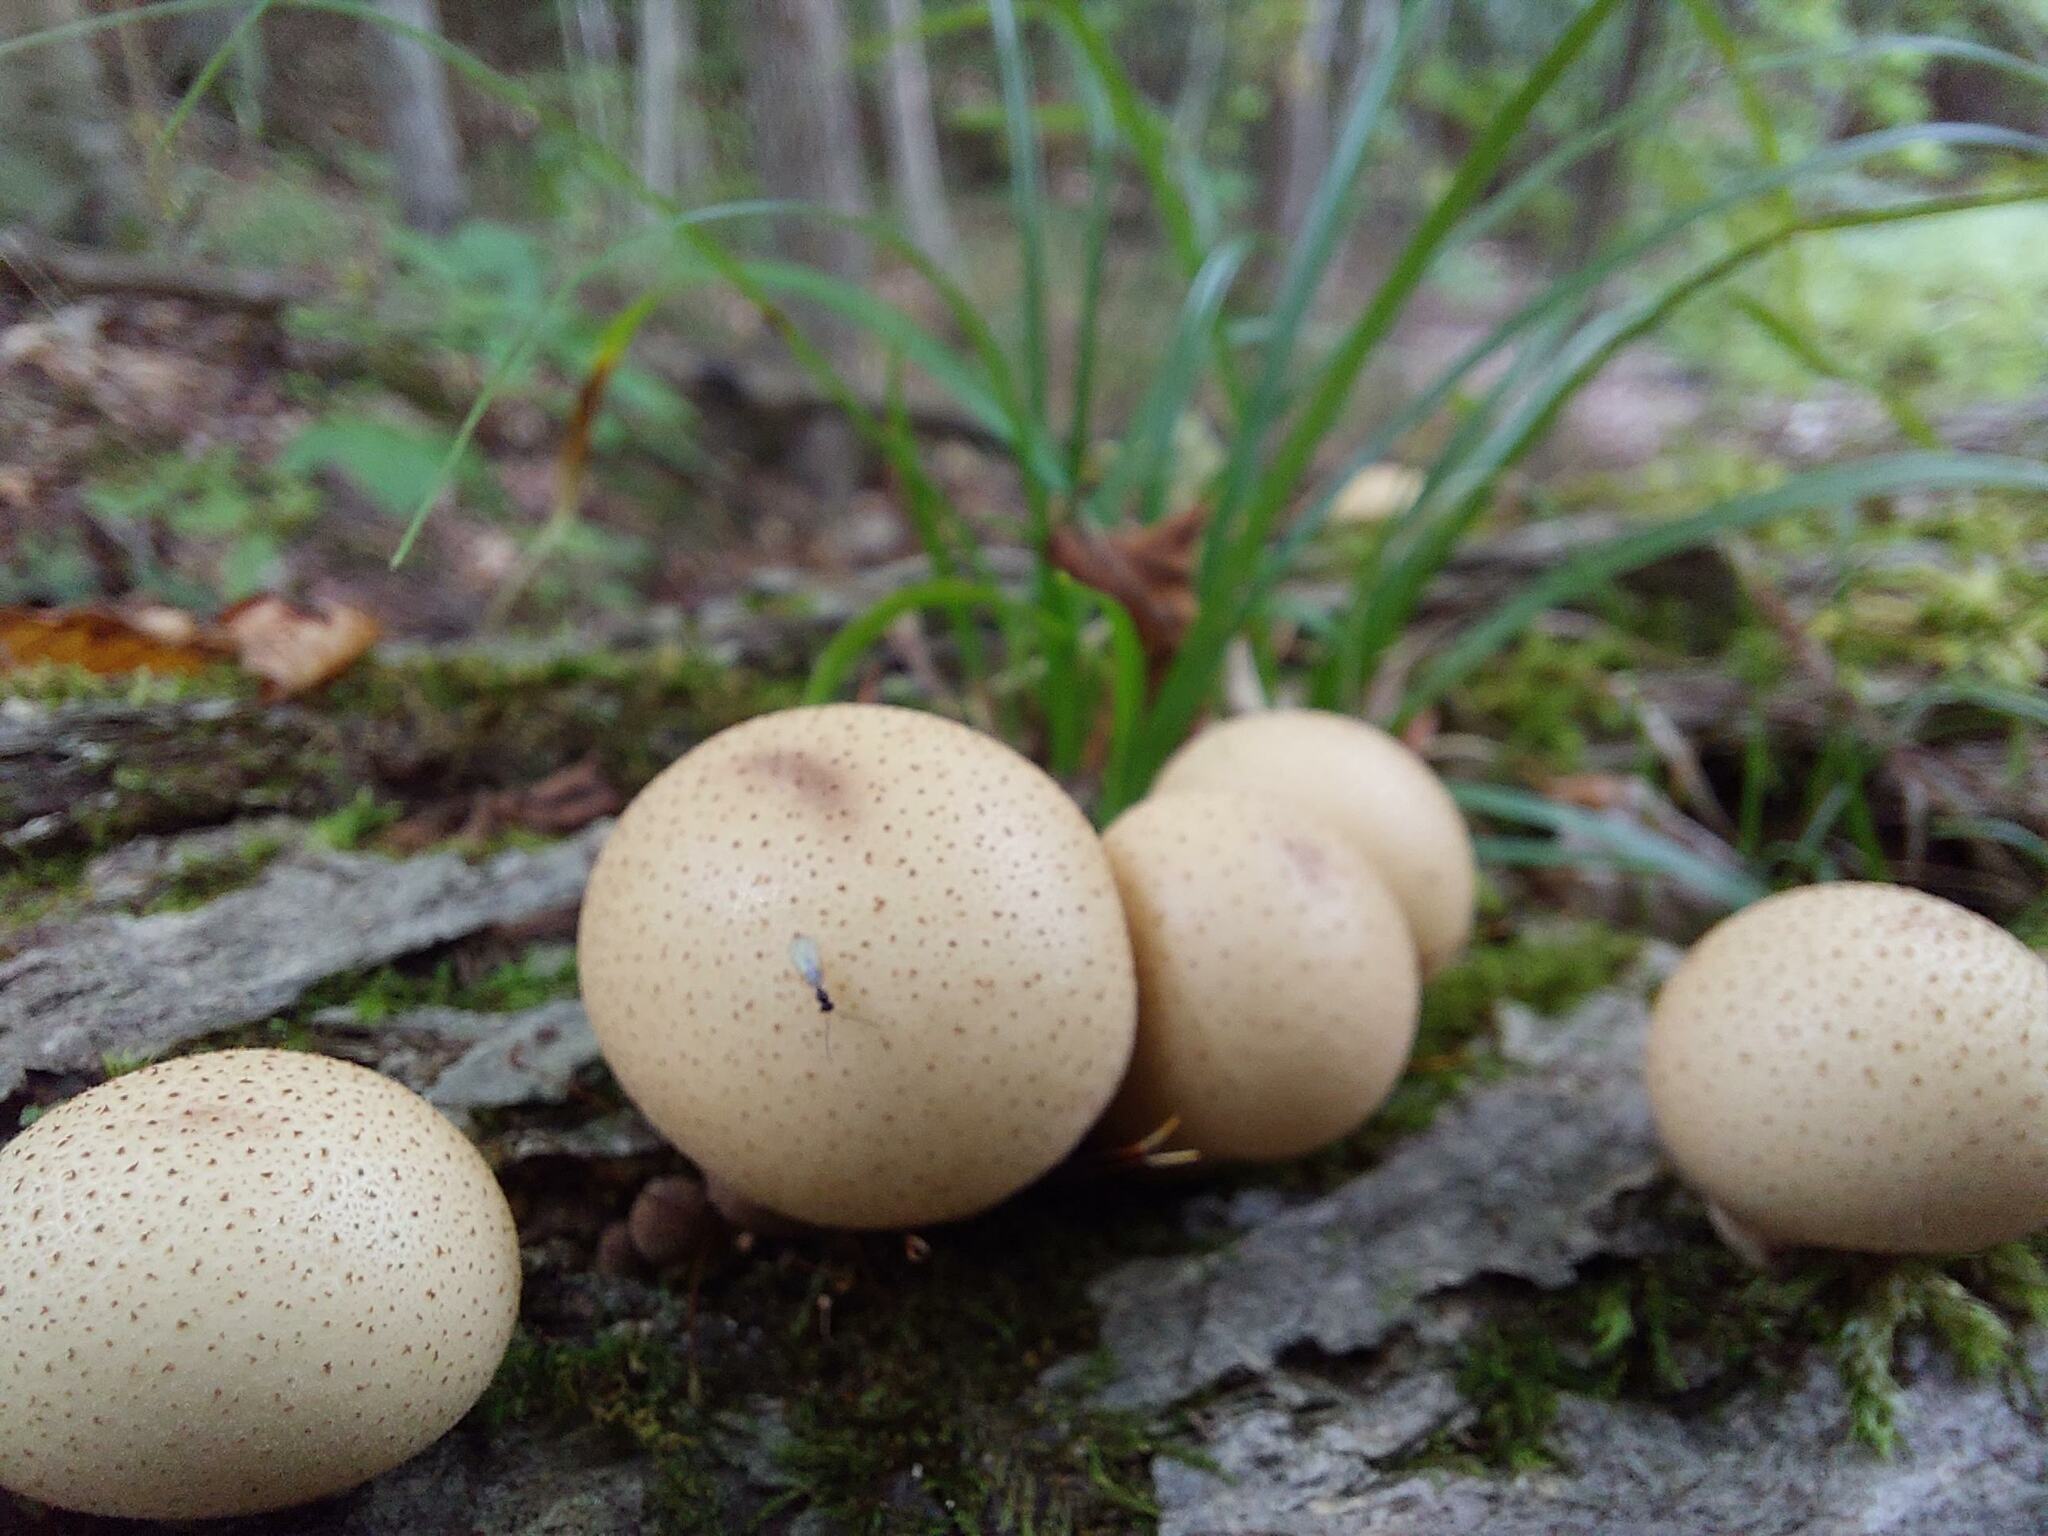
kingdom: Fungi
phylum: Basidiomycota
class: Agaricomycetes
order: Agaricales
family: Lycoperdaceae
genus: Apioperdon
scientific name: Apioperdon pyriforme
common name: Pear-shaped puffball
